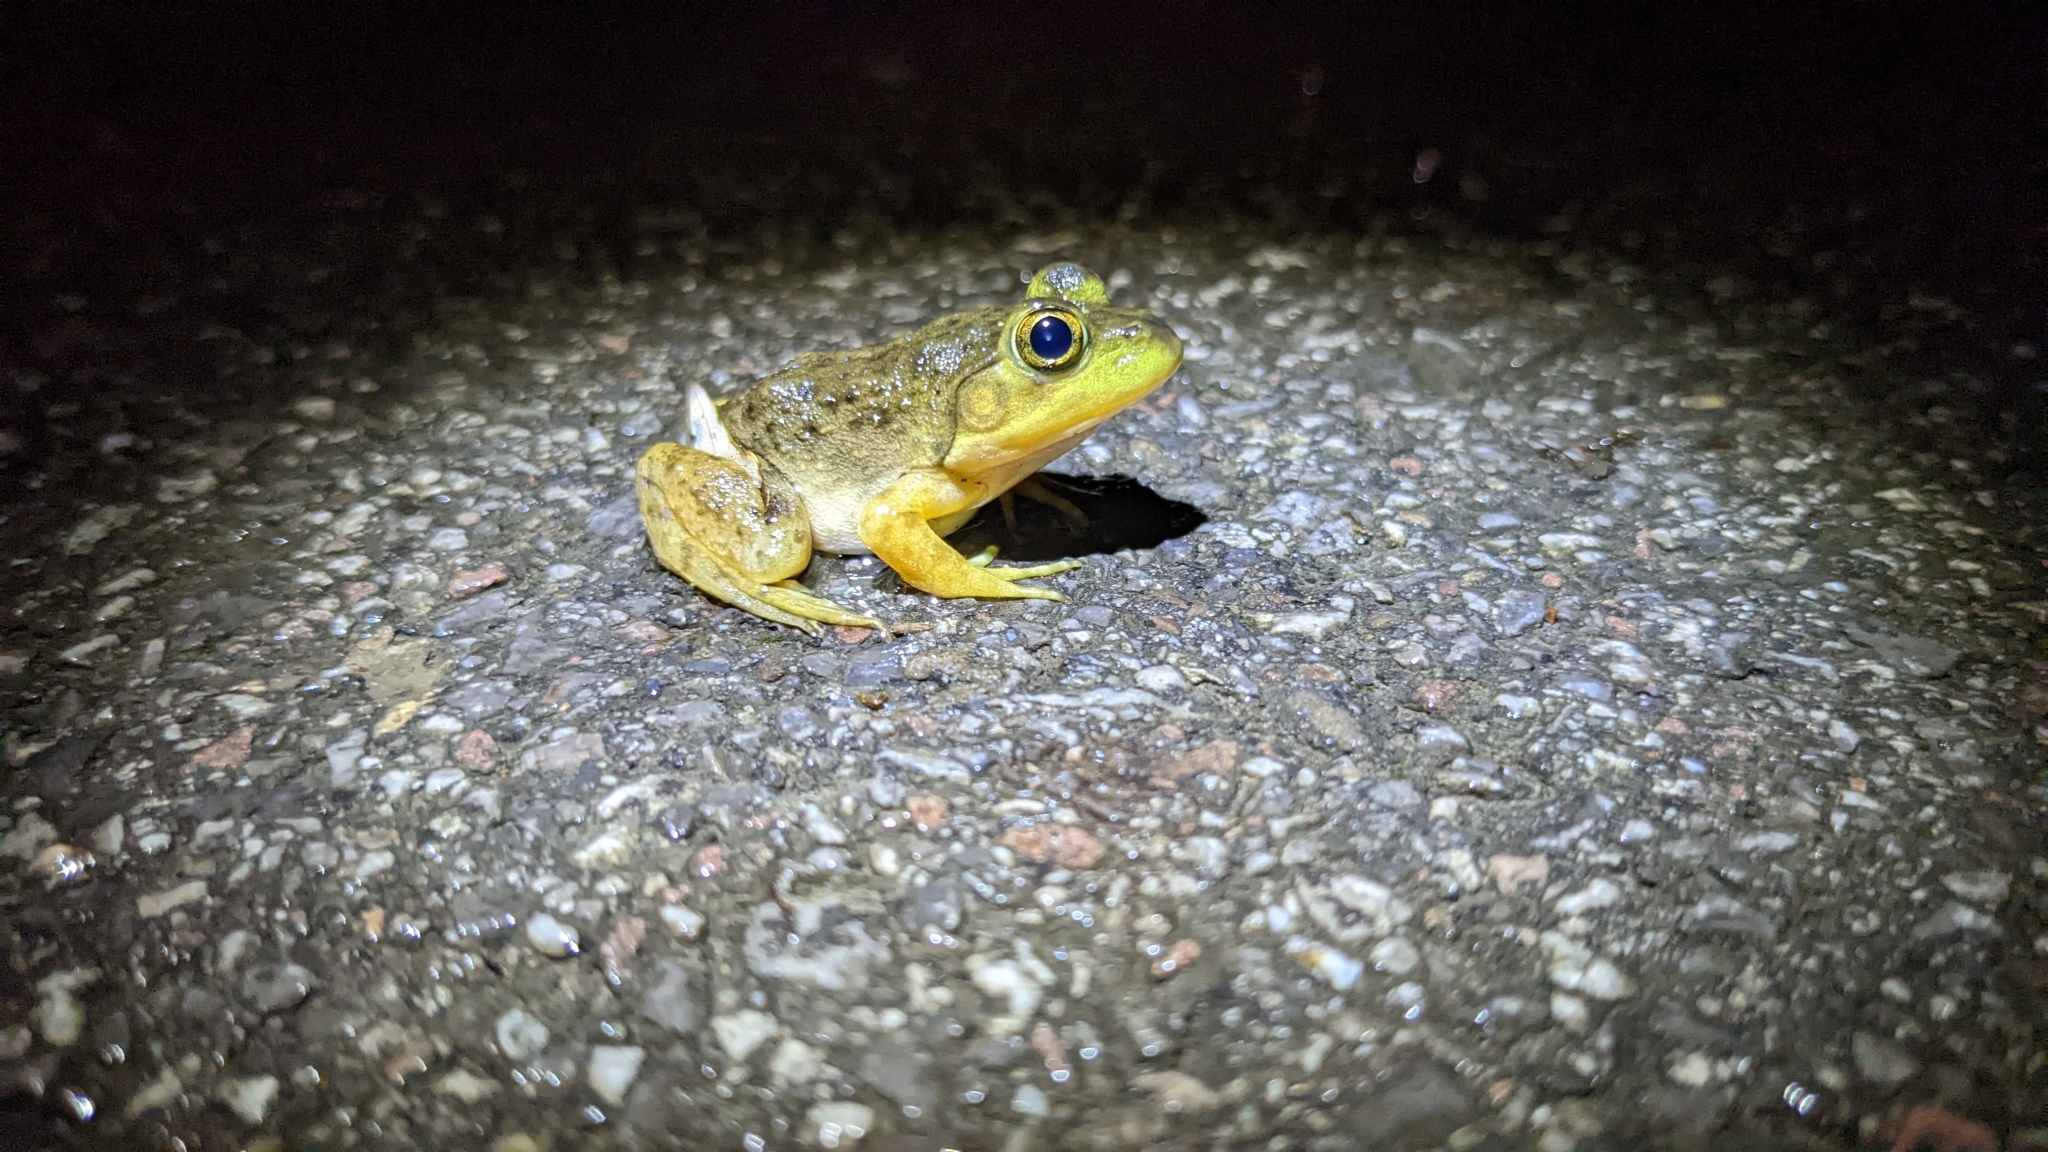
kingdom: Animalia
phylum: Chordata
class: Amphibia
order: Anura
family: Ranidae
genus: Lithobates
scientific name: Lithobates catesbeianus
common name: American bullfrog
